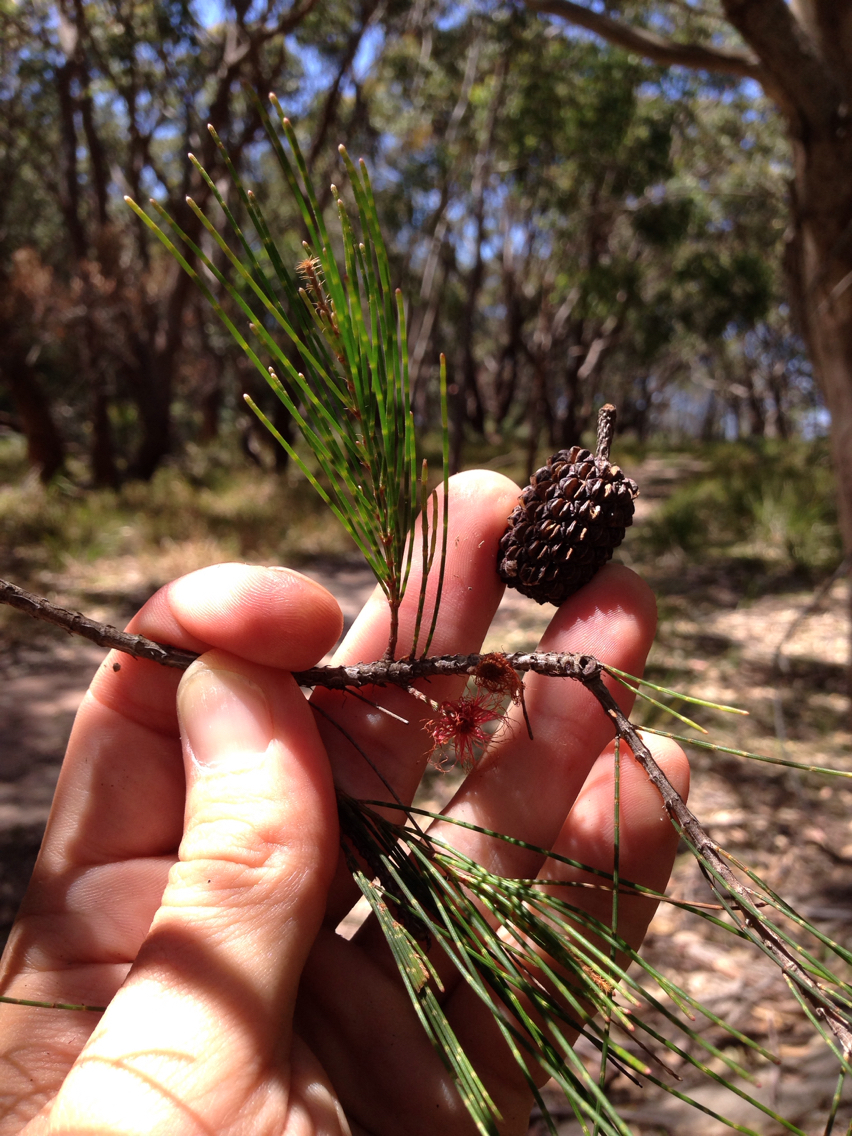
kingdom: Plantae
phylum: Tracheophyta
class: Magnoliopsida
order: Fagales
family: Casuarinaceae
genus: Allocasuarina
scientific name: Allocasuarina littoralis
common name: Black she-oak
